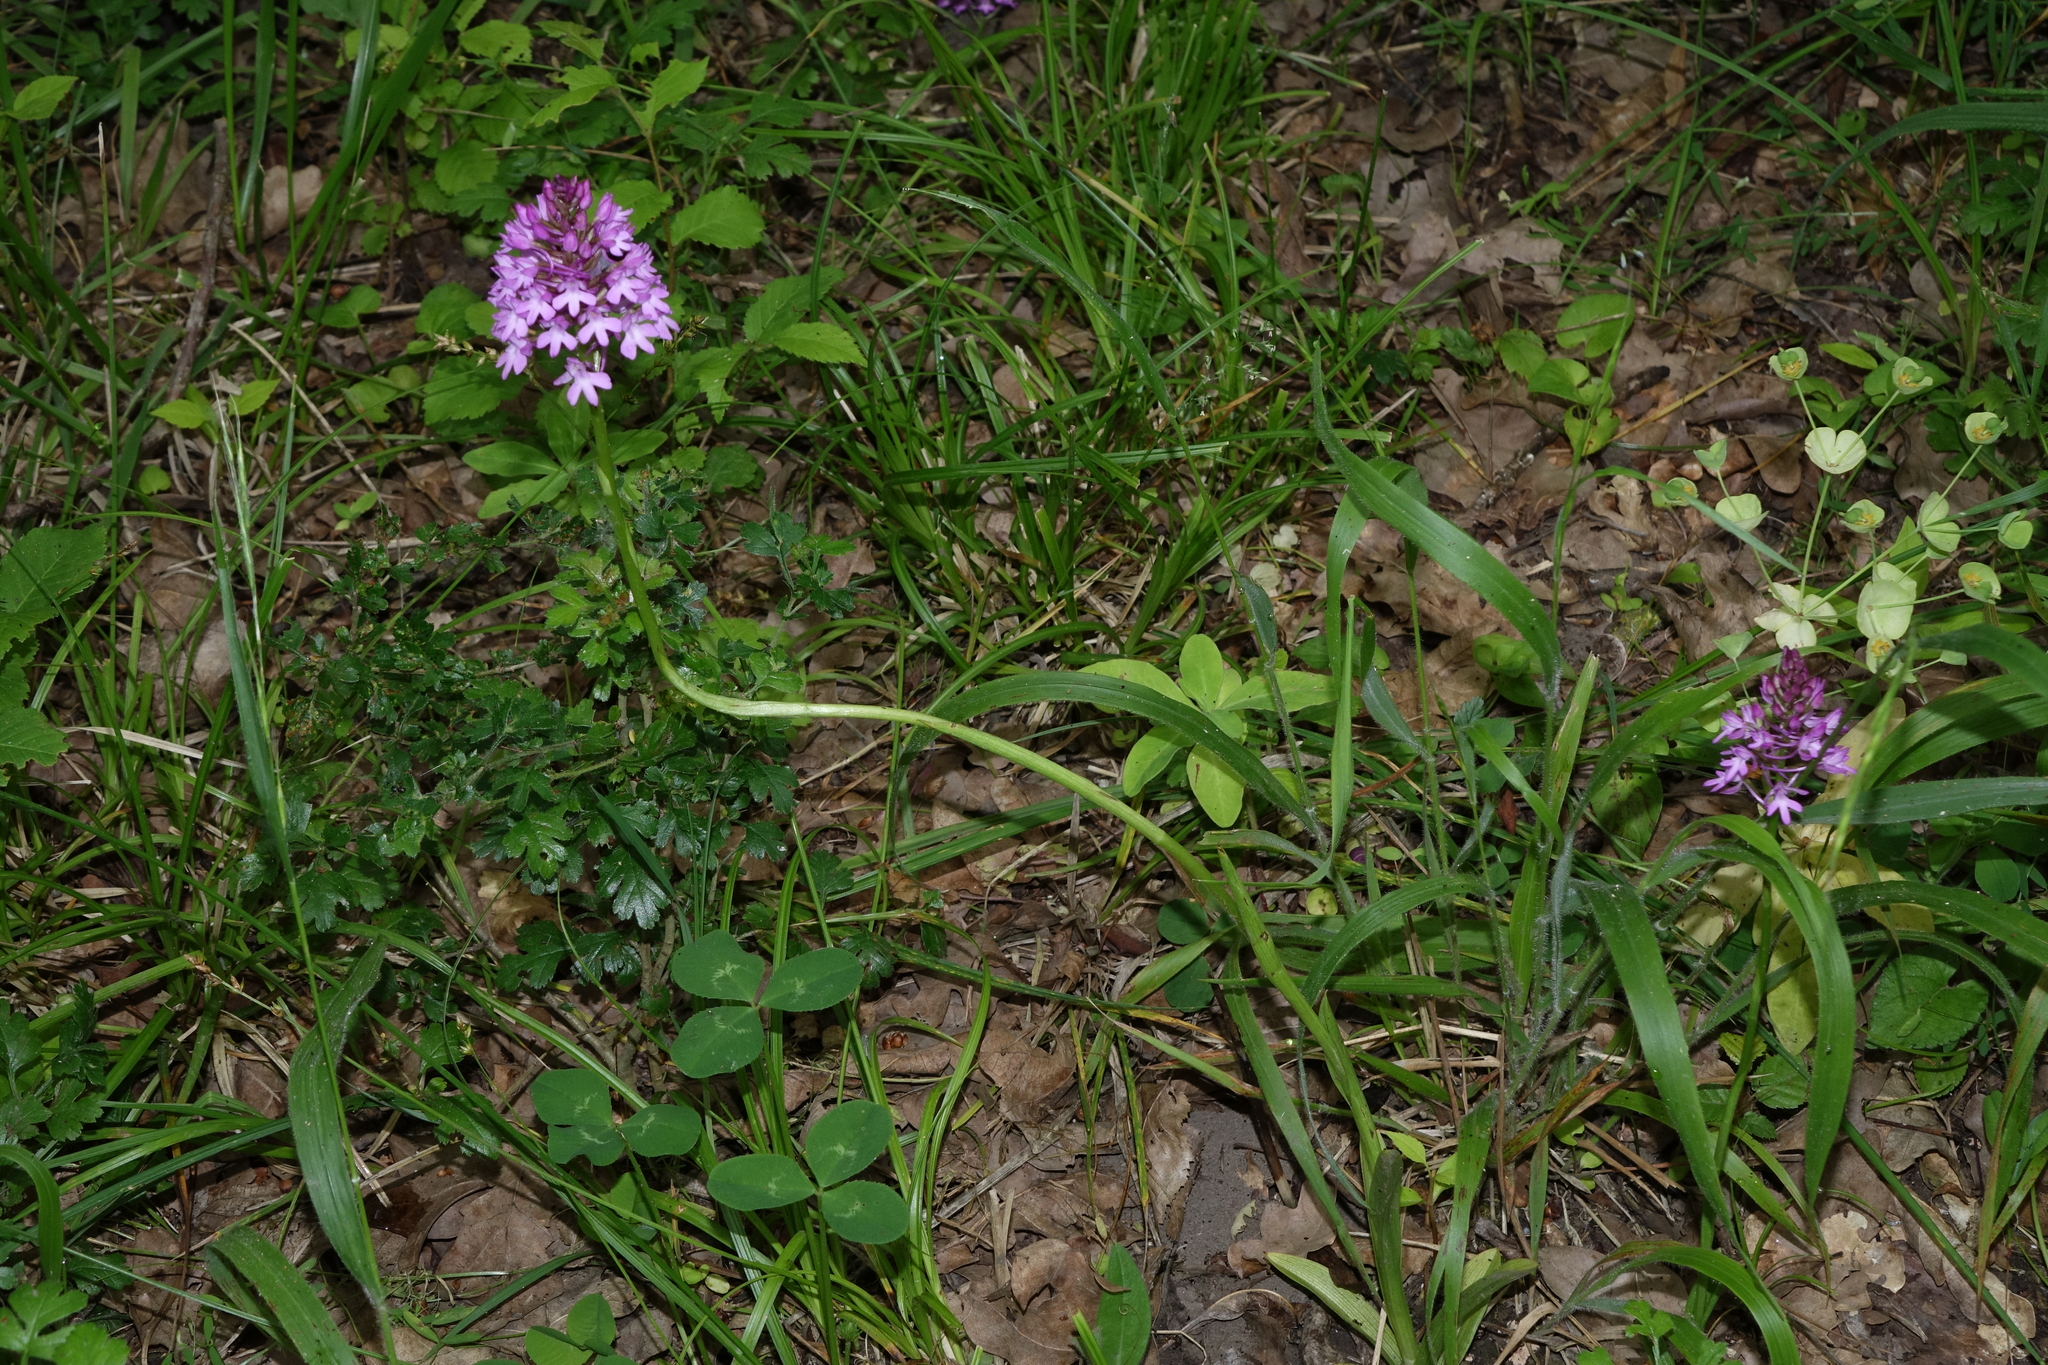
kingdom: Plantae
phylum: Tracheophyta
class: Liliopsida
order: Asparagales
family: Orchidaceae
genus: Anacamptis
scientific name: Anacamptis pyramidalis
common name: Pyramidal orchid
